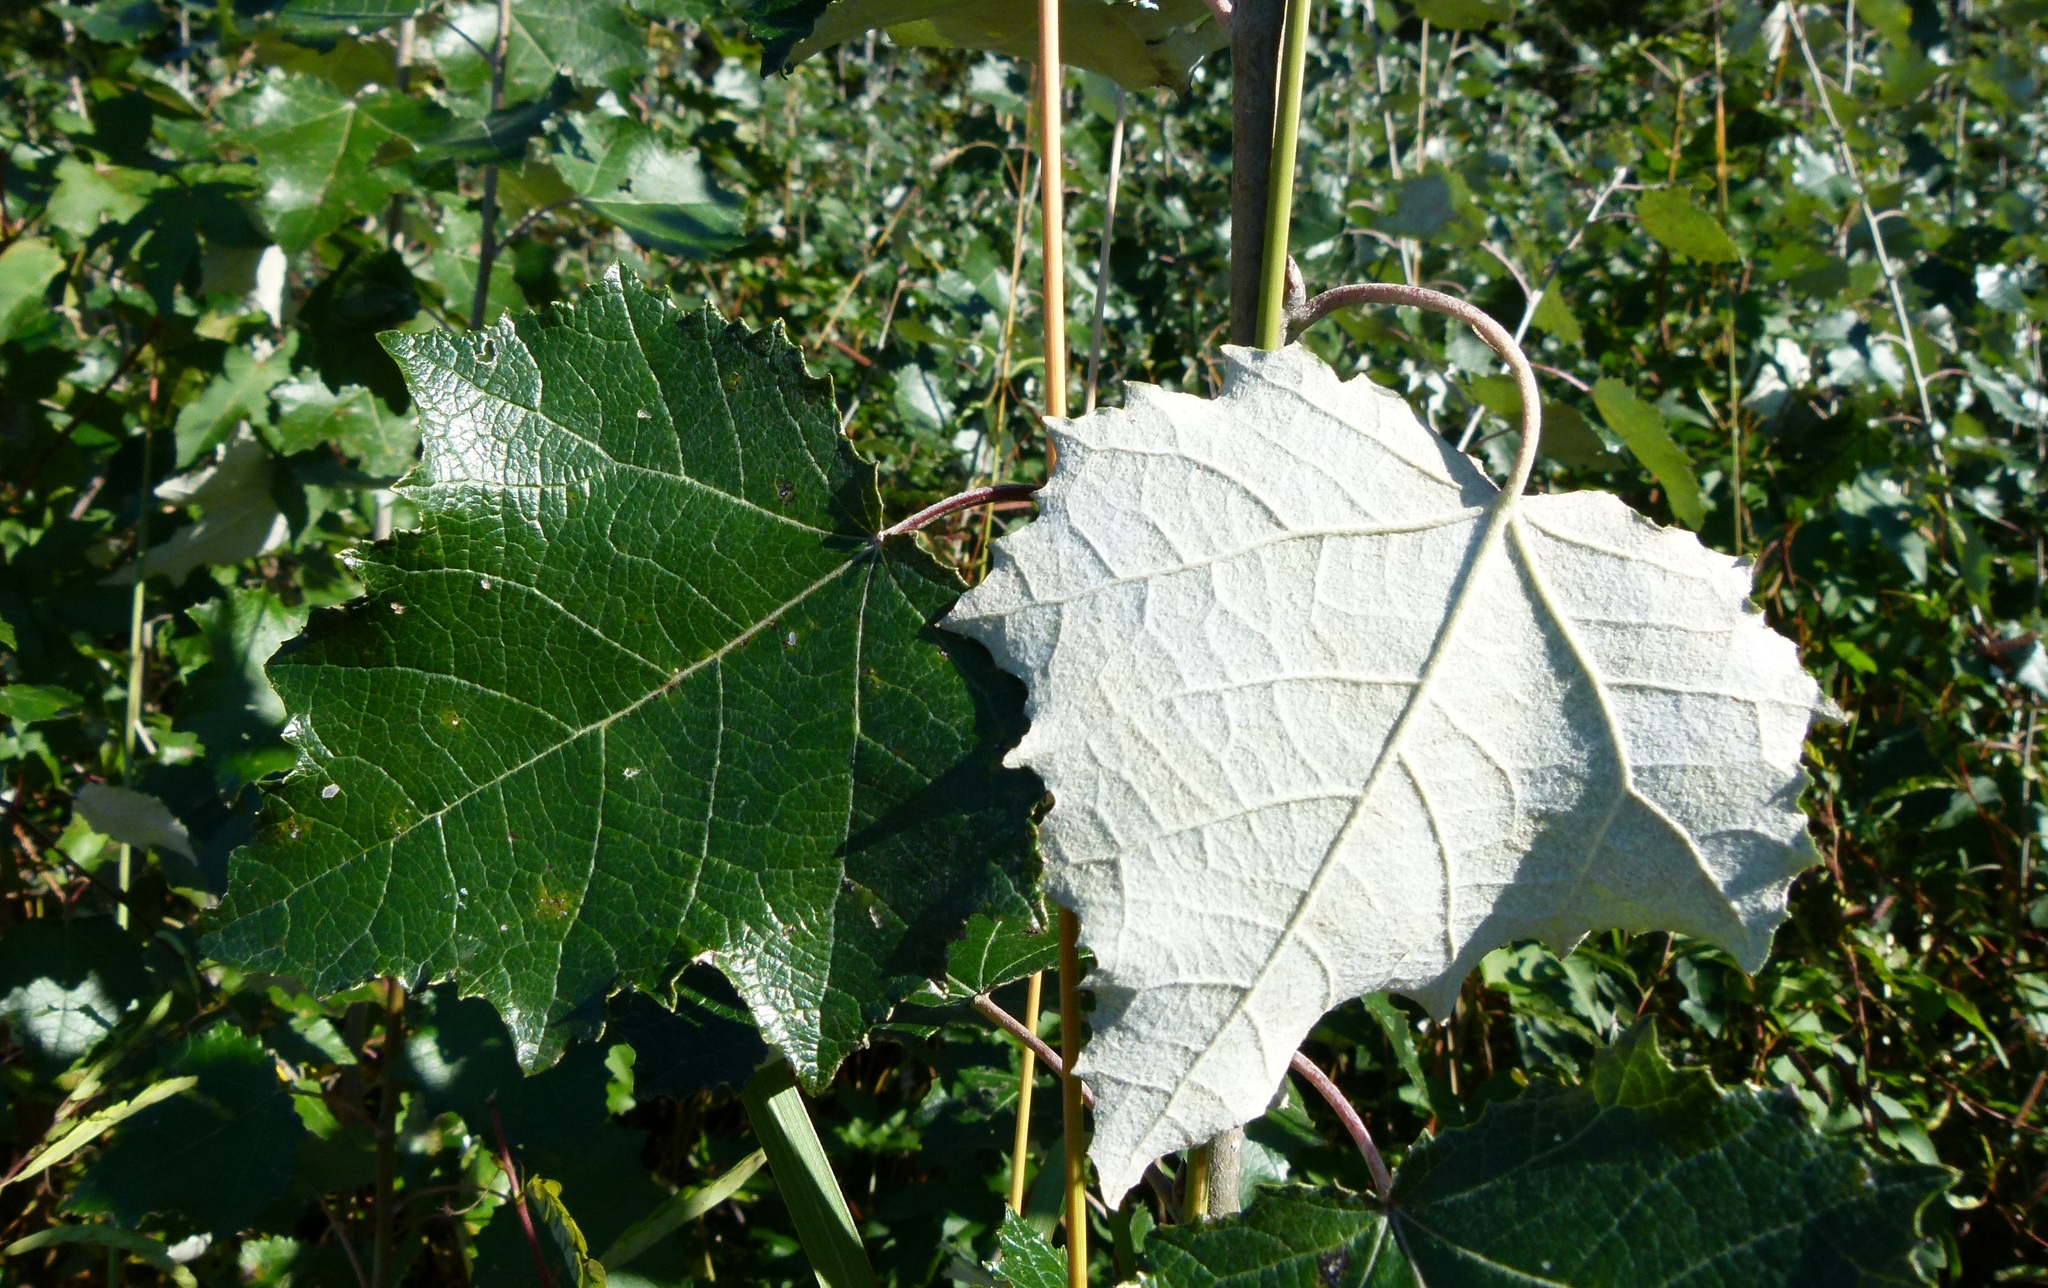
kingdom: Plantae
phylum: Tracheophyta
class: Magnoliopsida
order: Malpighiales
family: Salicaceae
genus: Populus
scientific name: Populus alba
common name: White poplar
